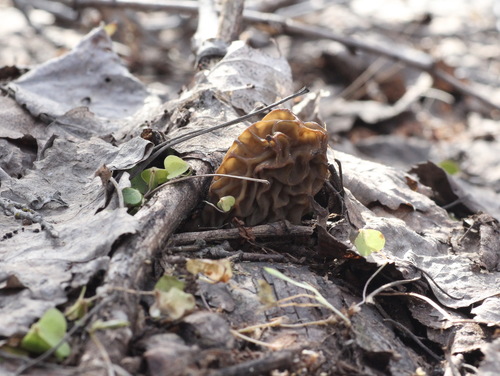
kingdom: Fungi
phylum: Ascomycota
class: Pezizomycetes
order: Pezizales
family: Morchellaceae
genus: Verpa
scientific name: Verpa bohemica
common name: Wrinkled thimble morel
